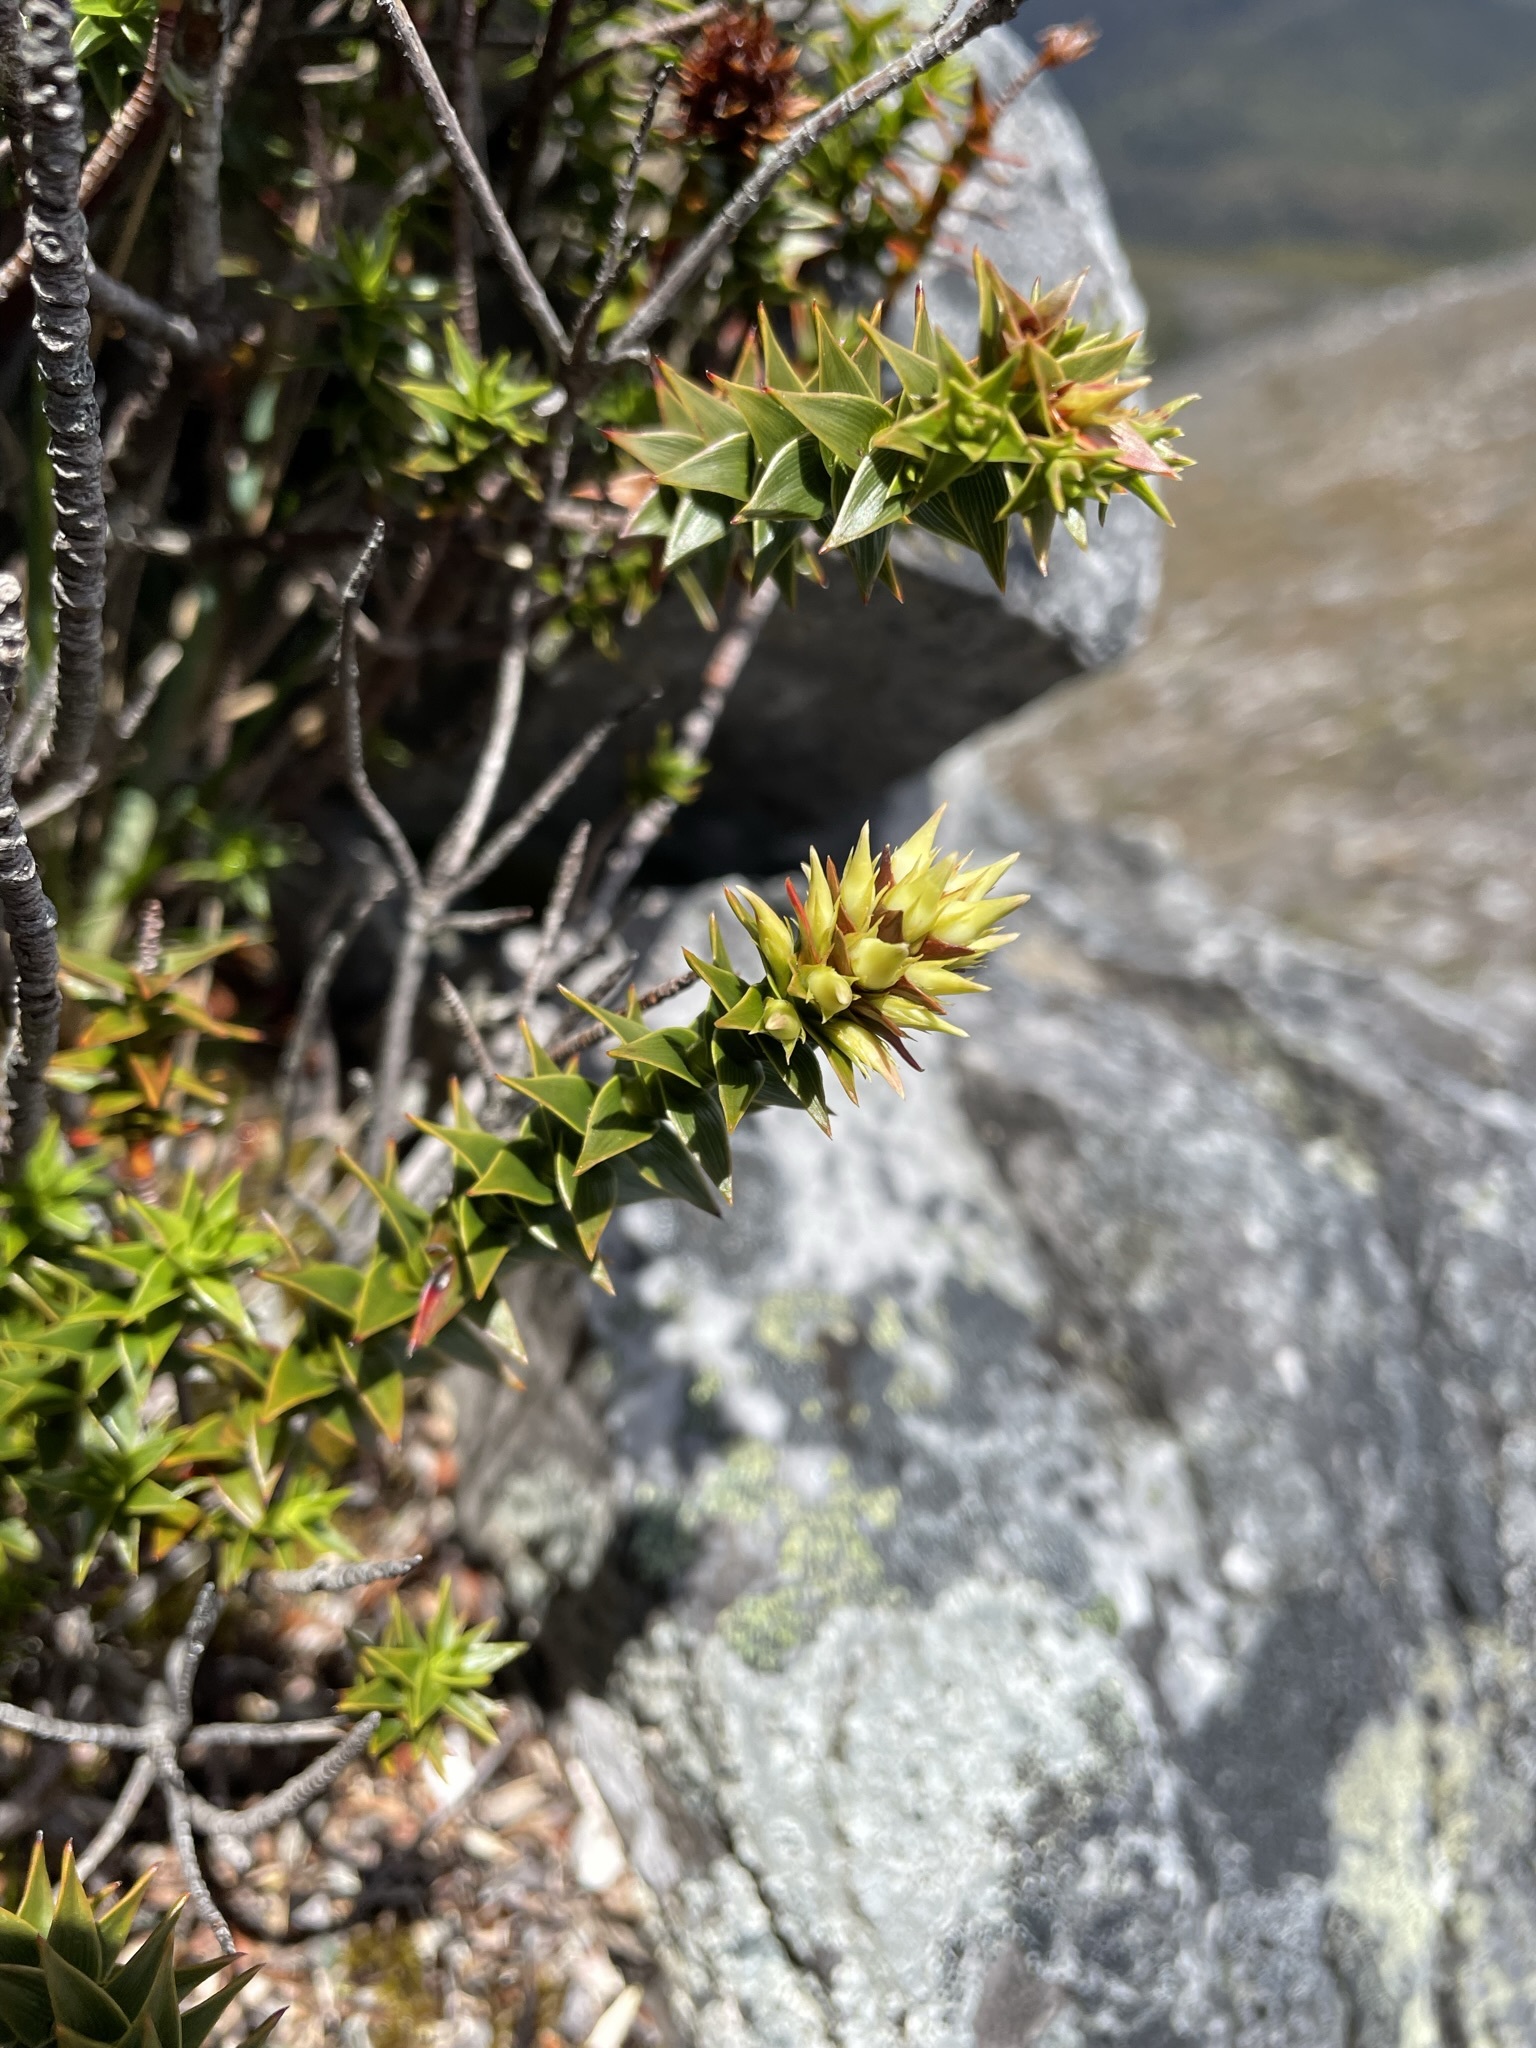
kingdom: Plantae
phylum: Tracheophyta
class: Magnoliopsida
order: Ericales
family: Ericaceae
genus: Dracophyllum
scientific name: Dracophyllum sprengelioides
